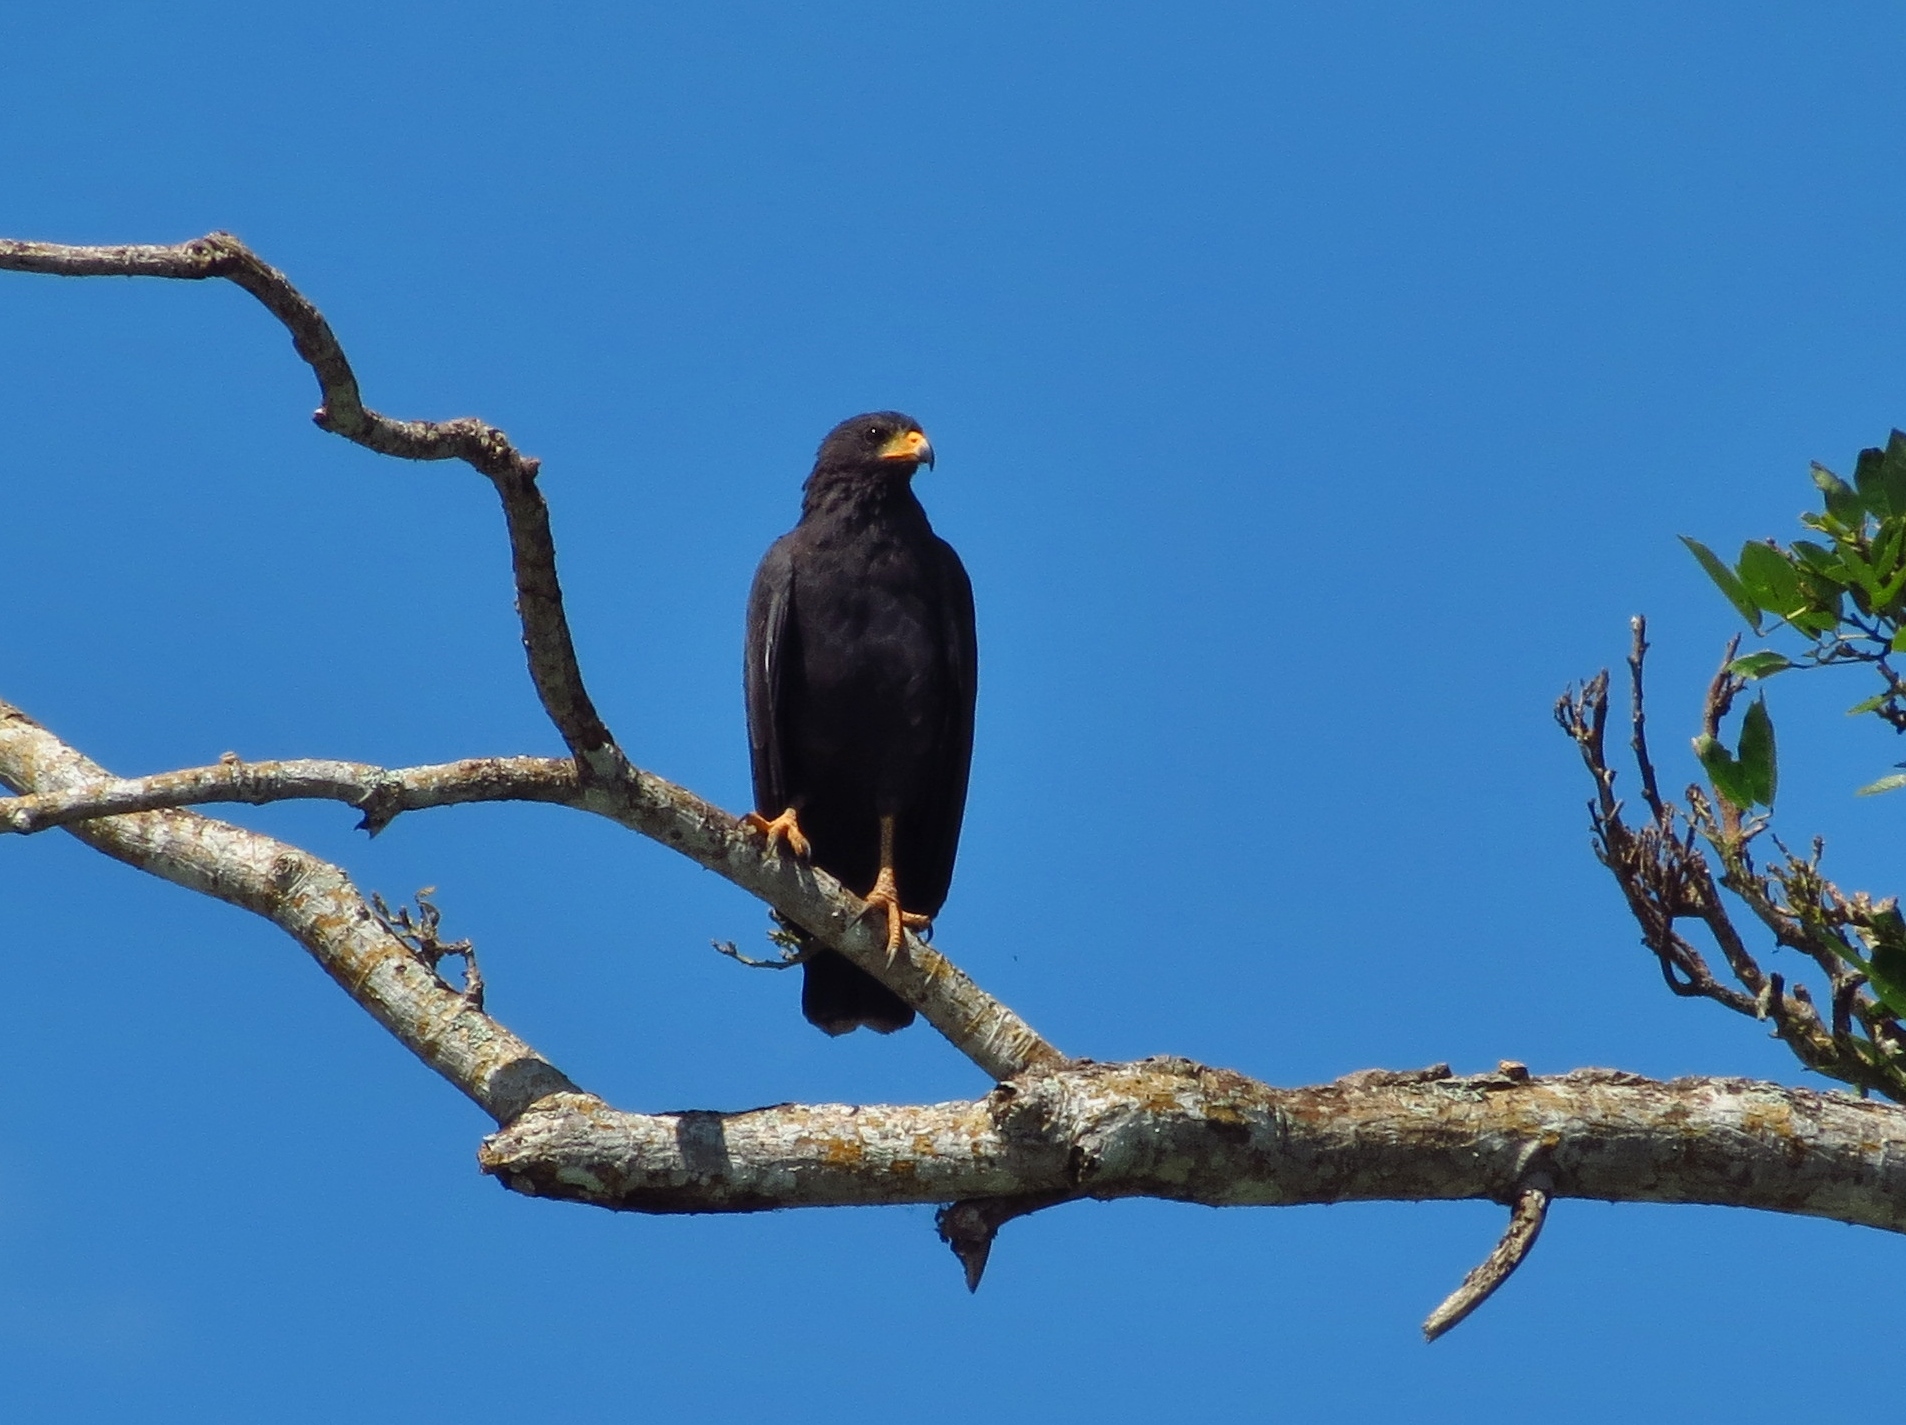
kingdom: Animalia
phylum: Chordata
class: Aves
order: Accipitriformes
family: Accipitridae
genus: Buteogallus
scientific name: Buteogallus anthracinus
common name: Common black hawk
